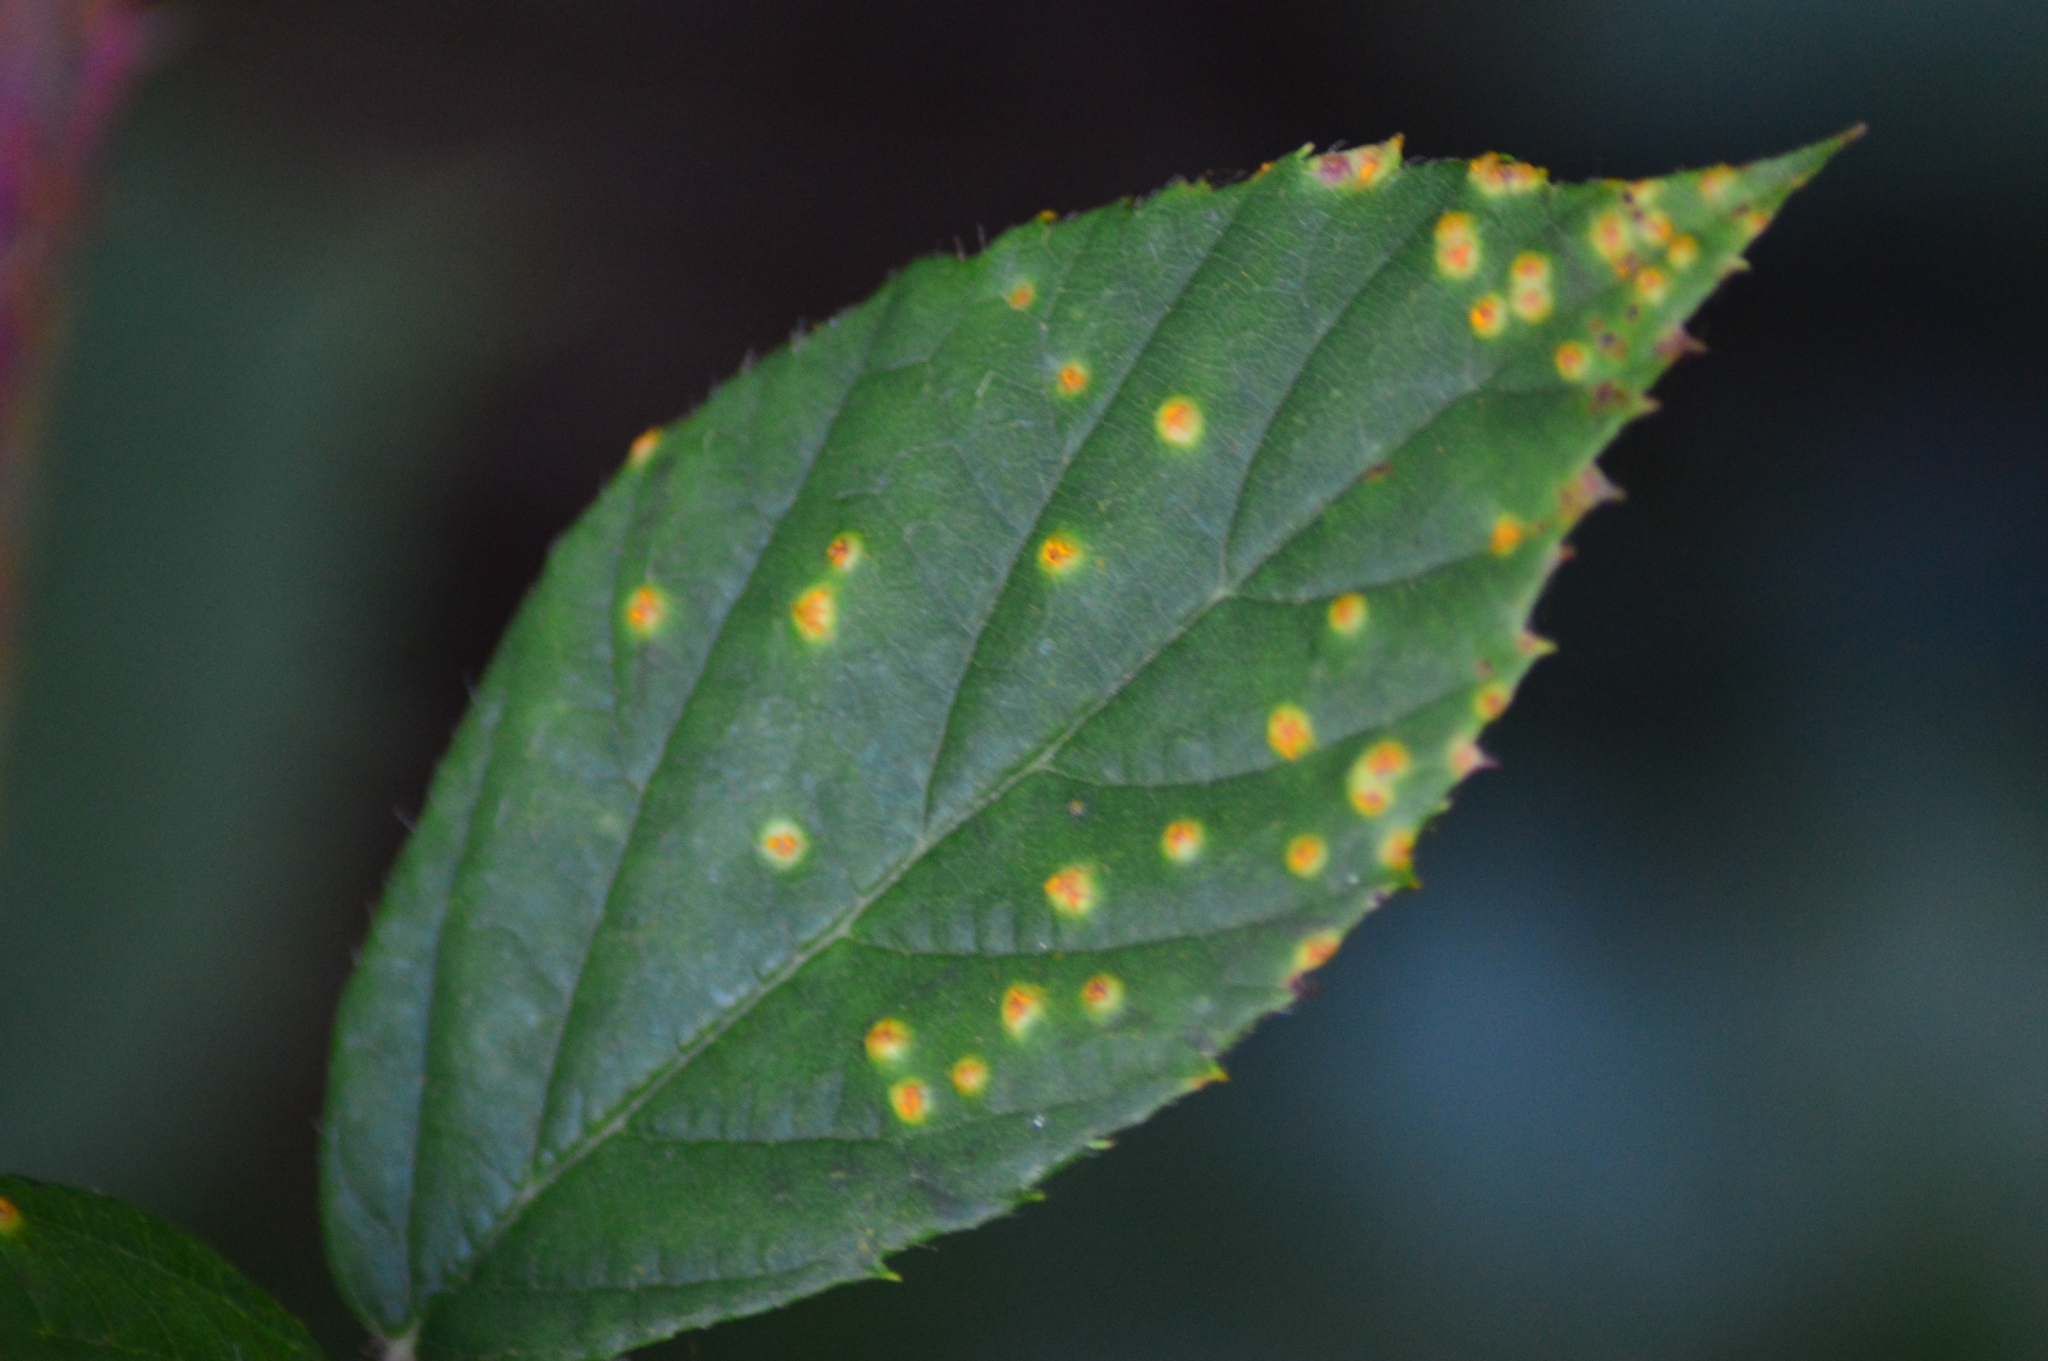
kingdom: Fungi
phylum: Basidiomycota
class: Pucciniomycetes
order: Pucciniales
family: Phragmidiaceae
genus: Kuehneola
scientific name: Kuehneola uredinis
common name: Bramble stem rust
